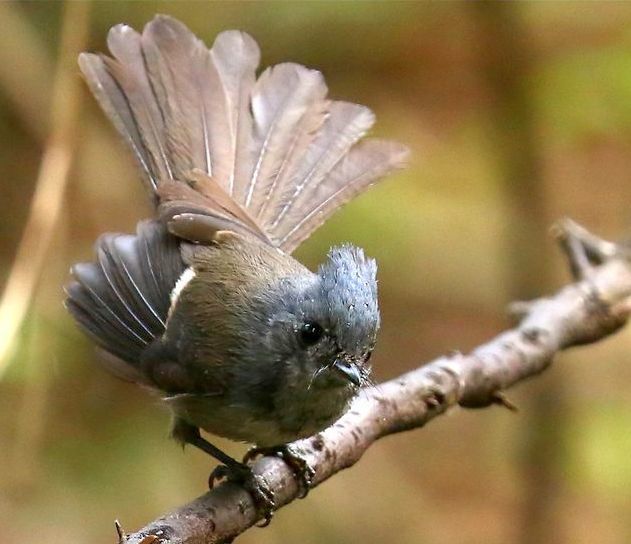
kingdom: Animalia
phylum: Chordata
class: Aves
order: Passeriformes
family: Monarchidae
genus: Trochocercus
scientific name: Trochocercus cyanomelas
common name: Blue-mantled crested flycatcher
